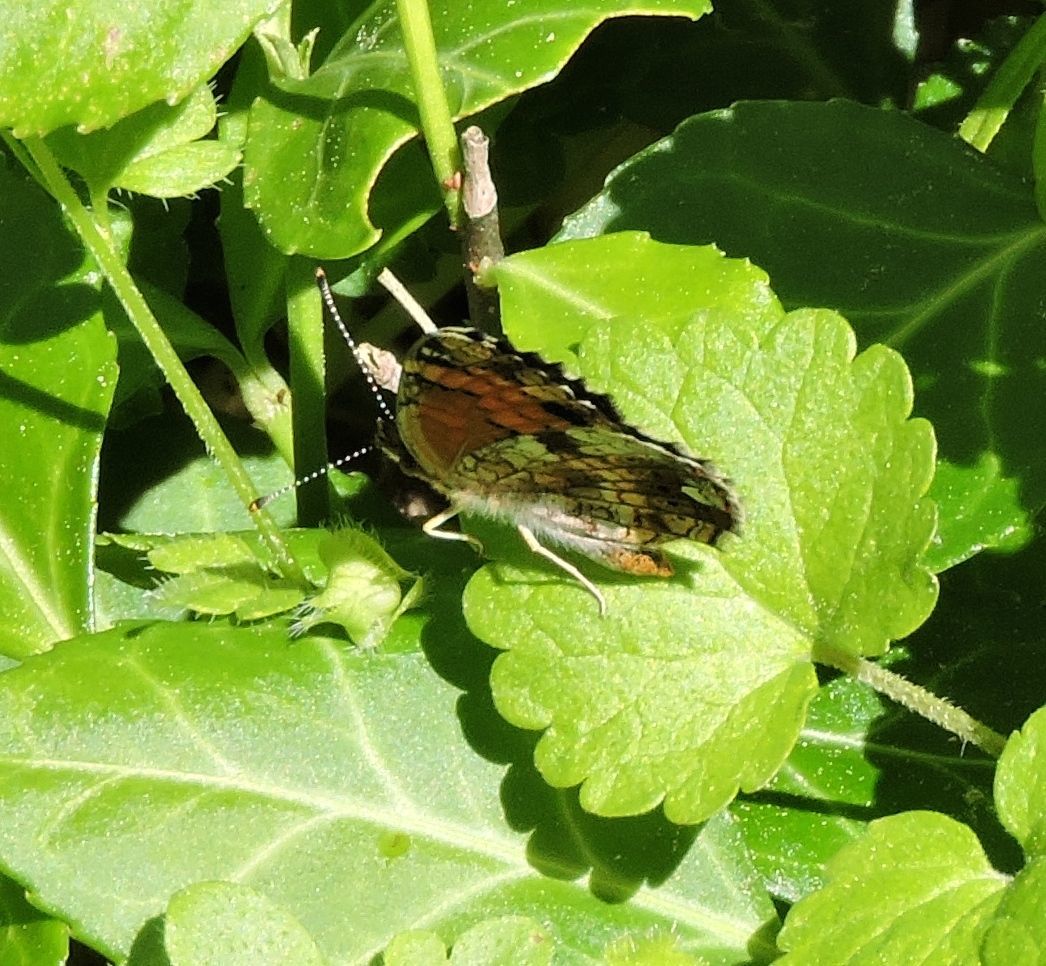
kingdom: Animalia
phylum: Arthropoda
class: Insecta
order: Lepidoptera
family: Nymphalidae
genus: Phyciodes
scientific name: Phyciodes tharos
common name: Pearl crescent
